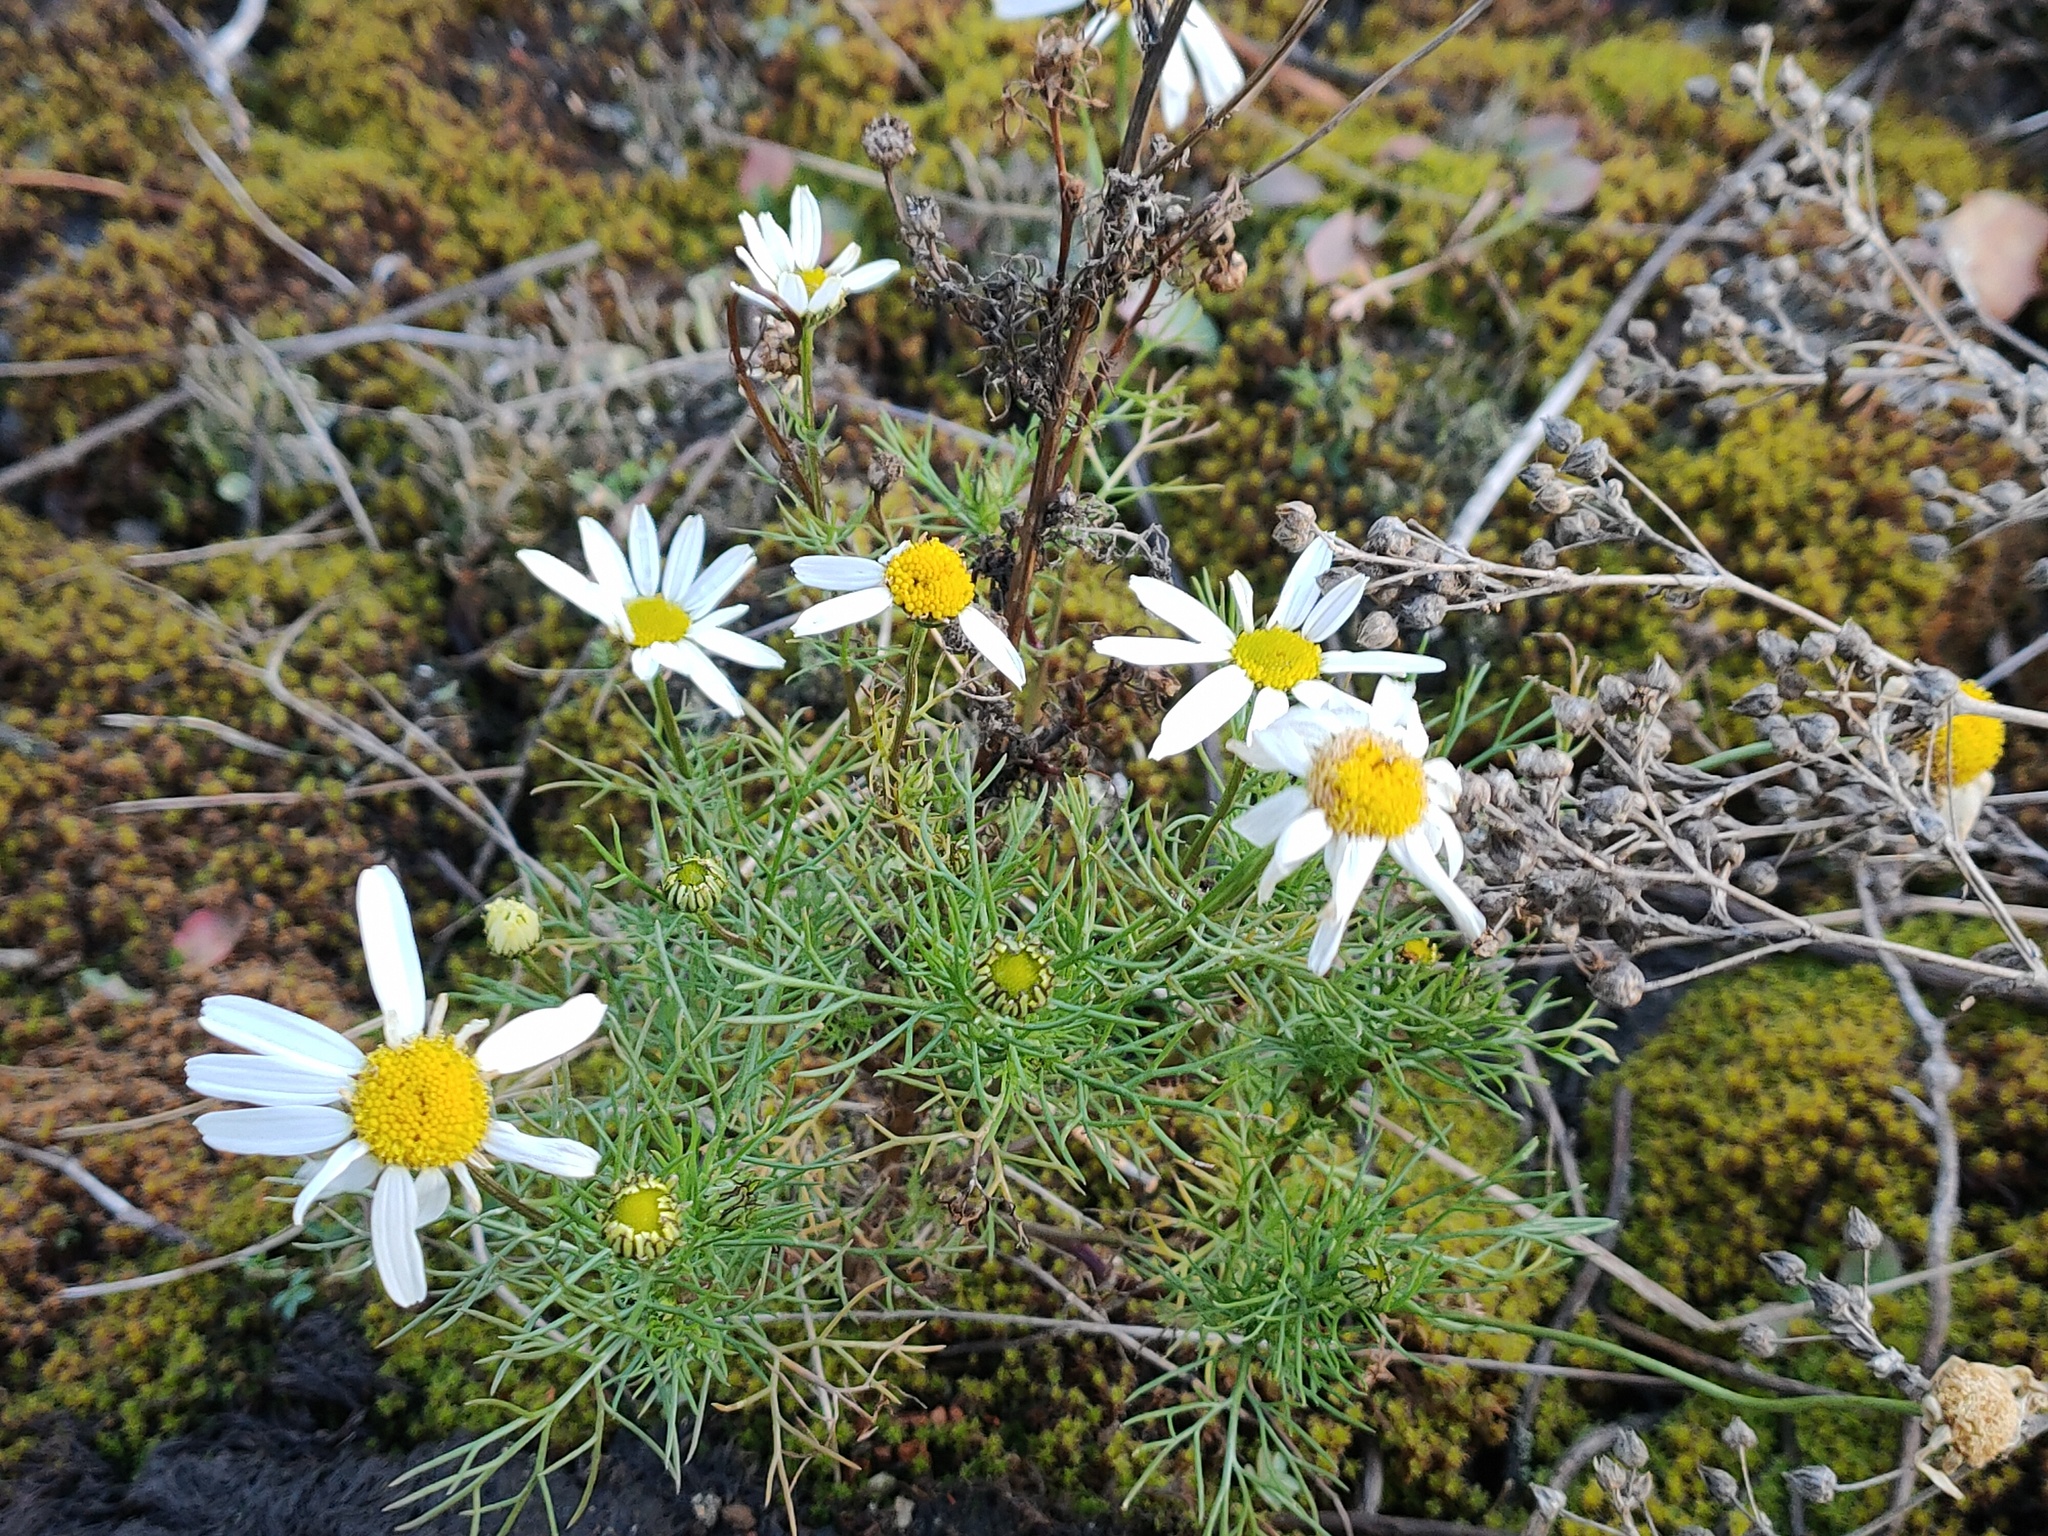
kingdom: Plantae
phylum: Tracheophyta
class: Magnoliopsida
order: Asterales
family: Asteraceae
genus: Tripleurospermum
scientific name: Tripleurospermum inodorum
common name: Scentless mayweed
